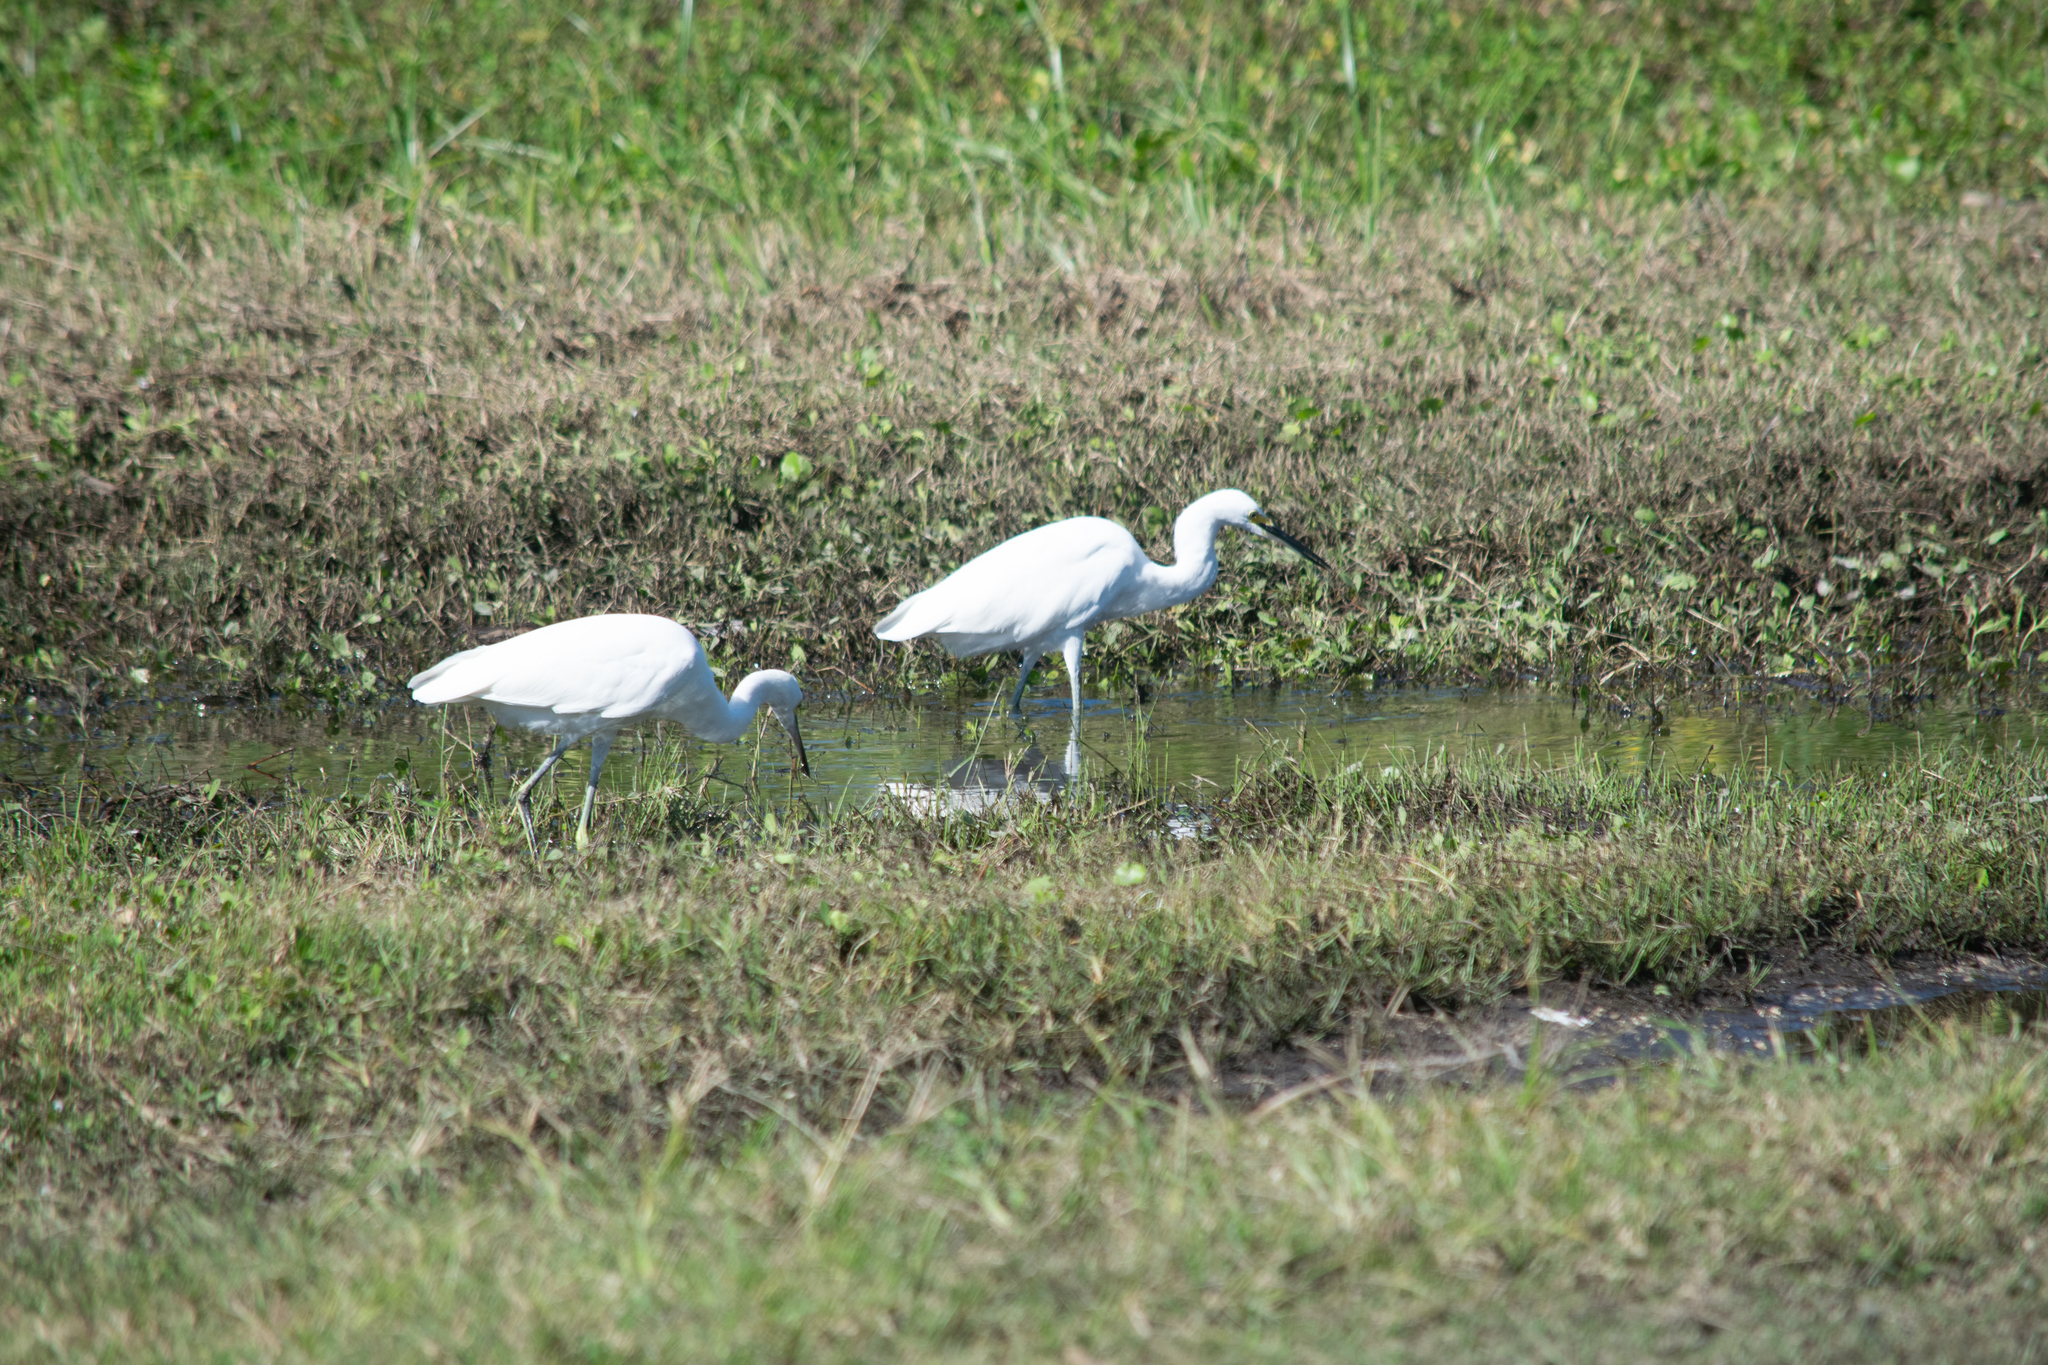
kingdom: Animalia
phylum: Chordata
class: Aves
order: Pelecaniformes
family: Ardeidae
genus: Egretta
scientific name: Egretta thula
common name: Snowy egret
